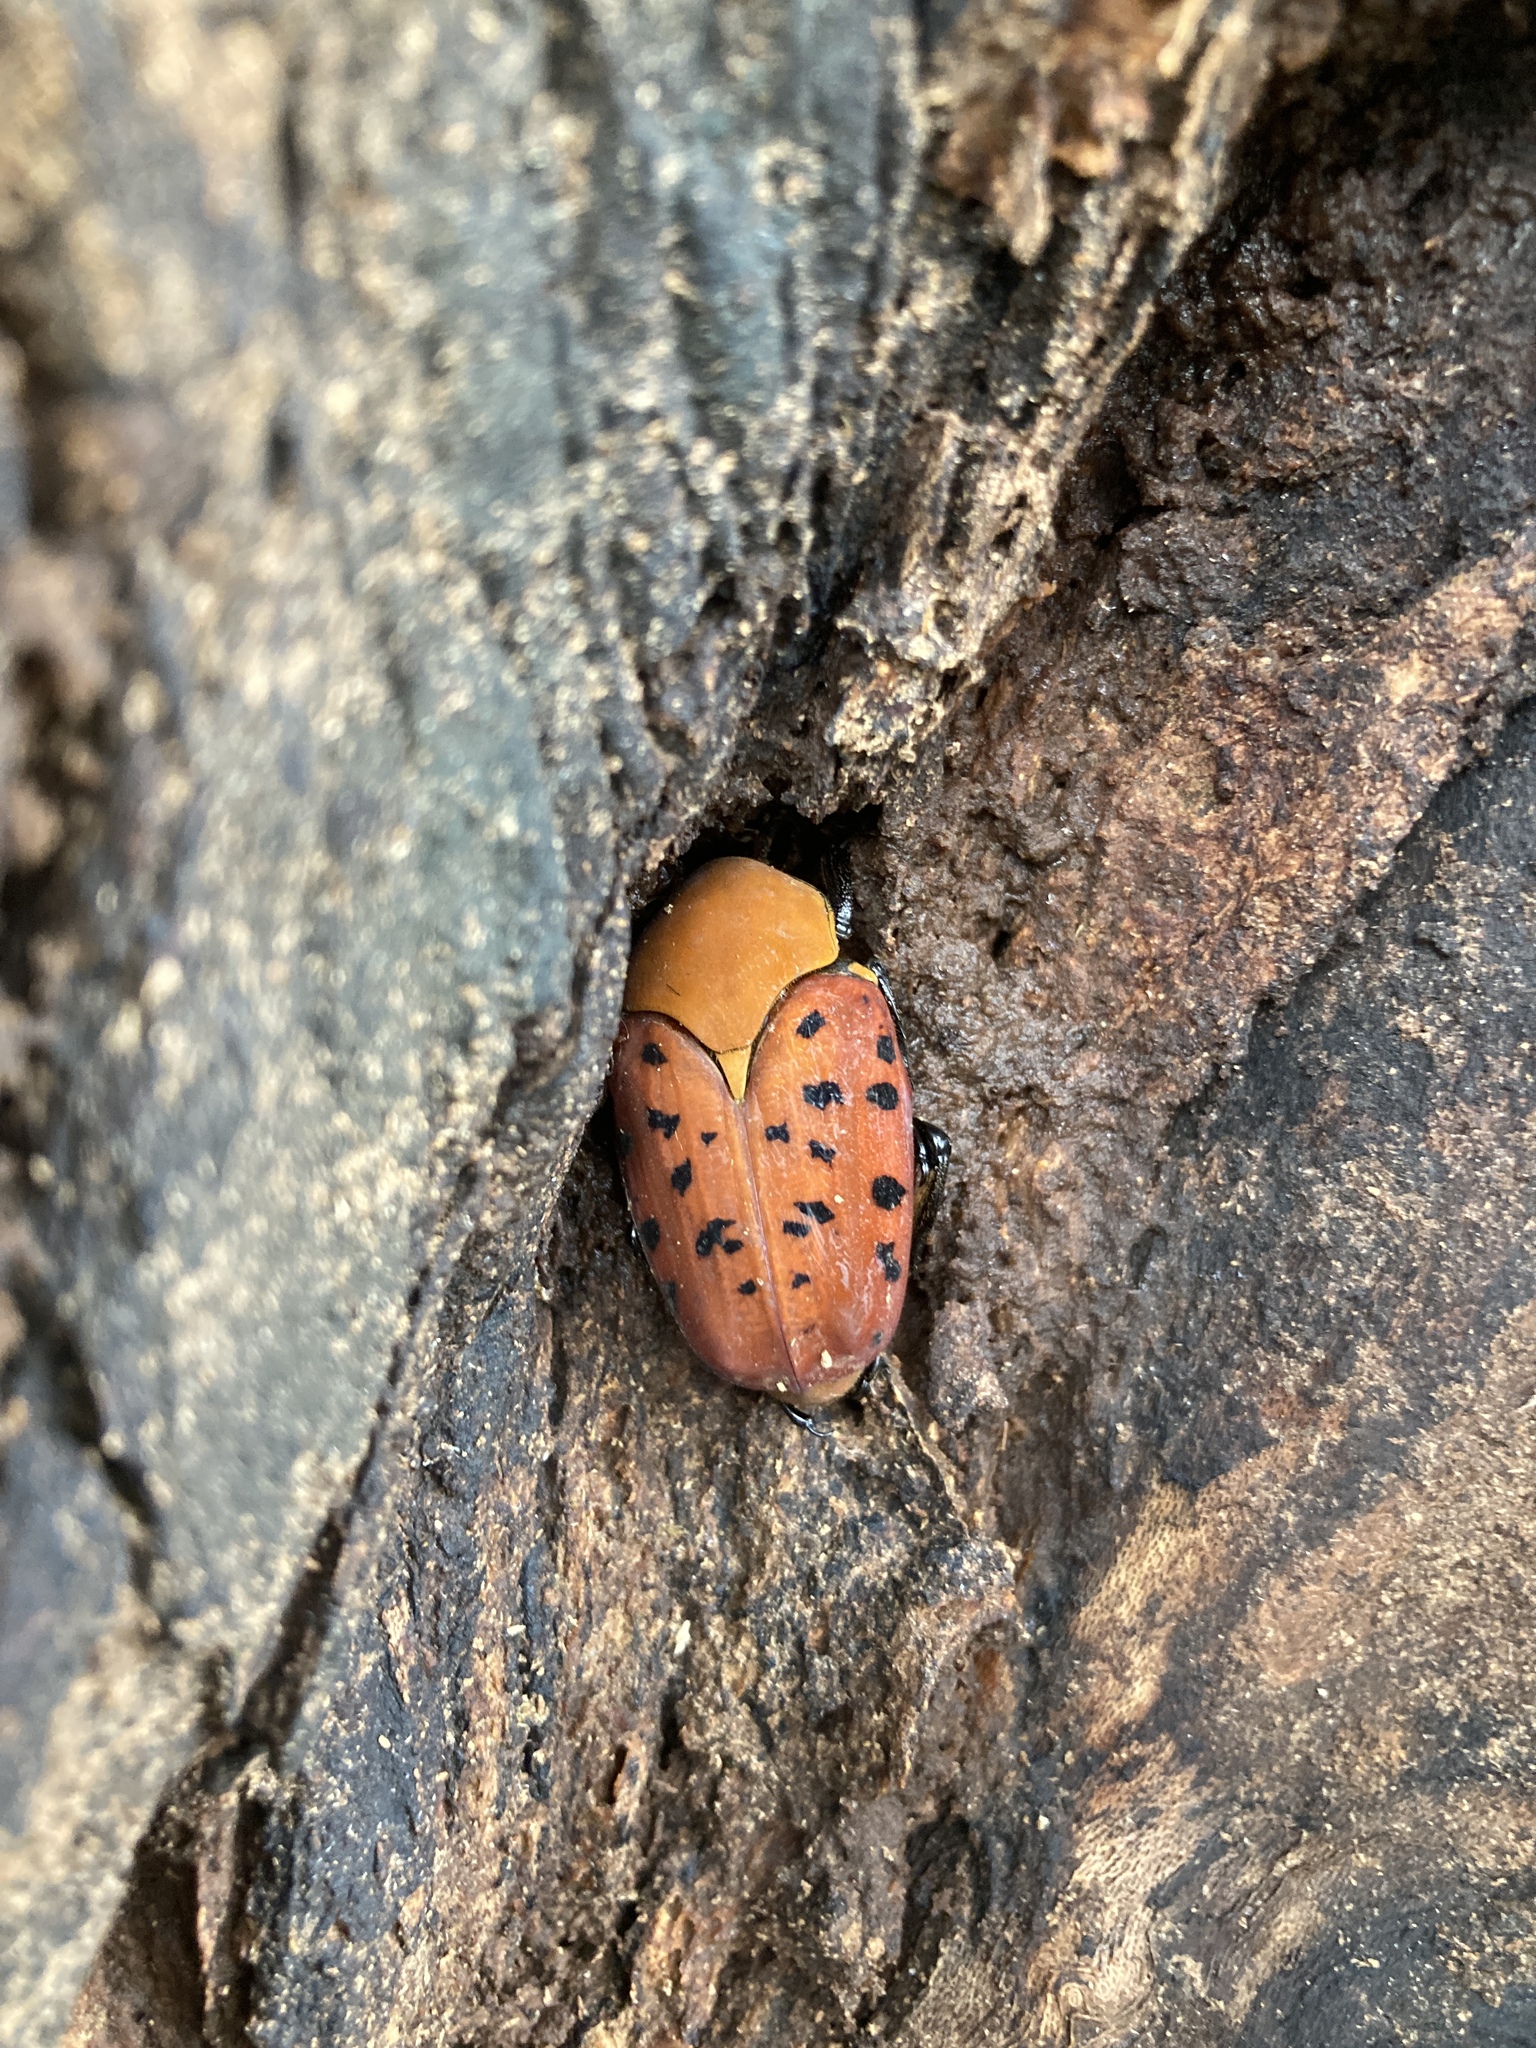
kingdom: Animalia
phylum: Arthropoda
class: Insecta
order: Coleoptera
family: Scarabaeidae
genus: Conradtia
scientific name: Conradtia principalis
